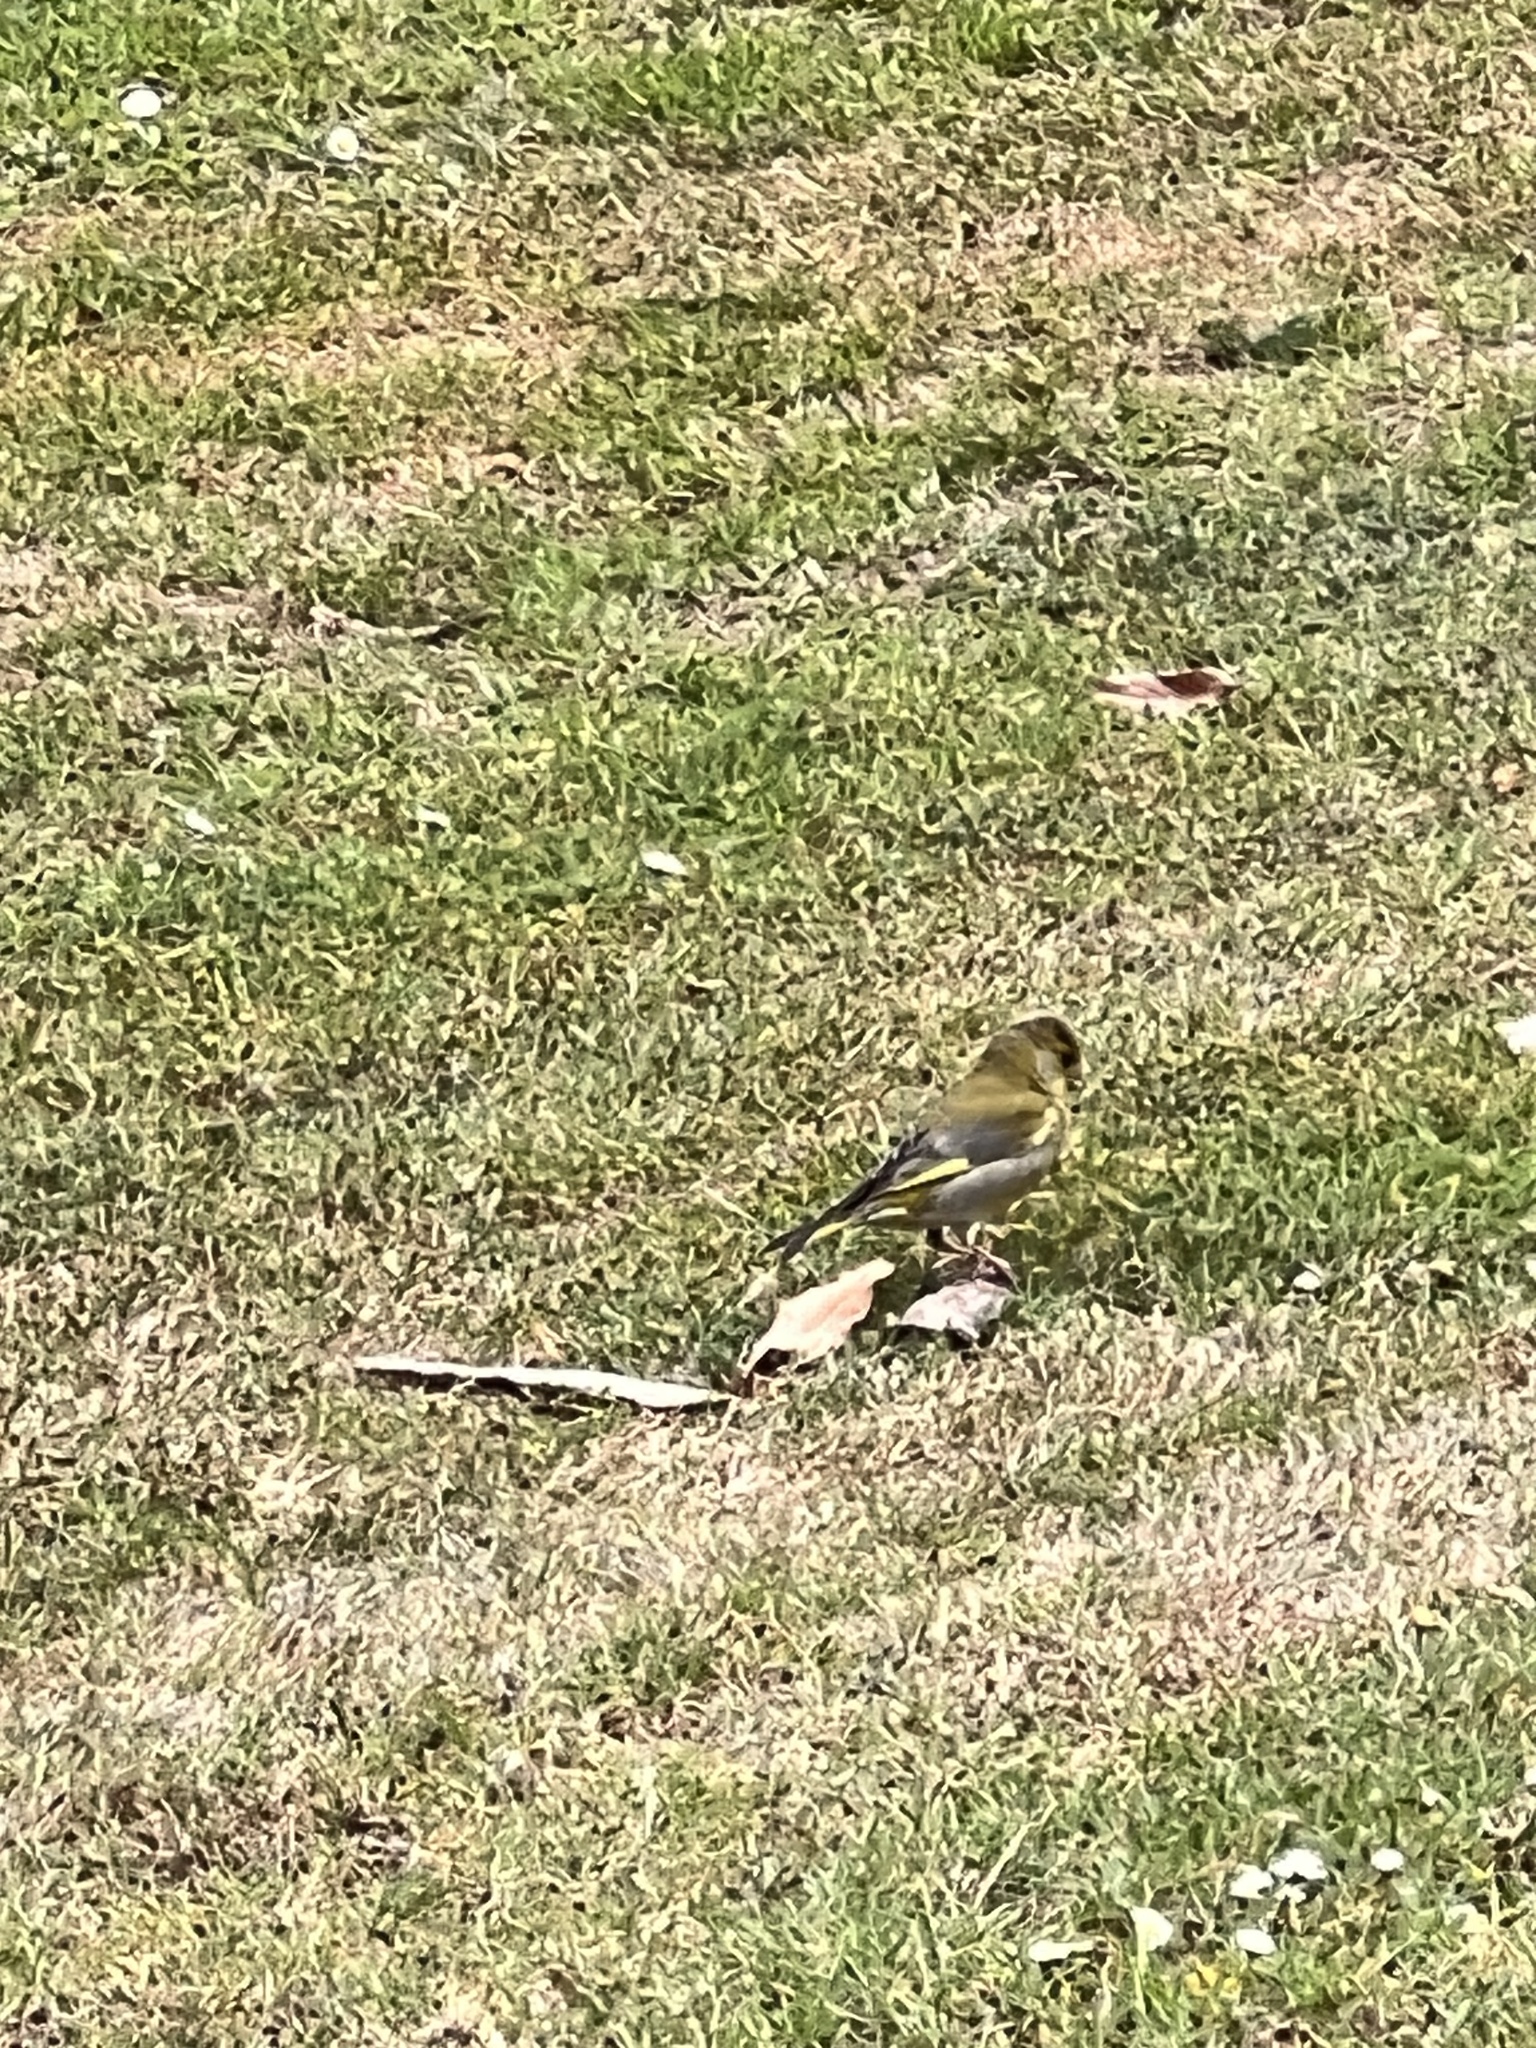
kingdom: Plantae
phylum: Tracheophyta
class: Liliopsida
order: Poales
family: Poaceae
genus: Chloris
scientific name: Chloris chloris
